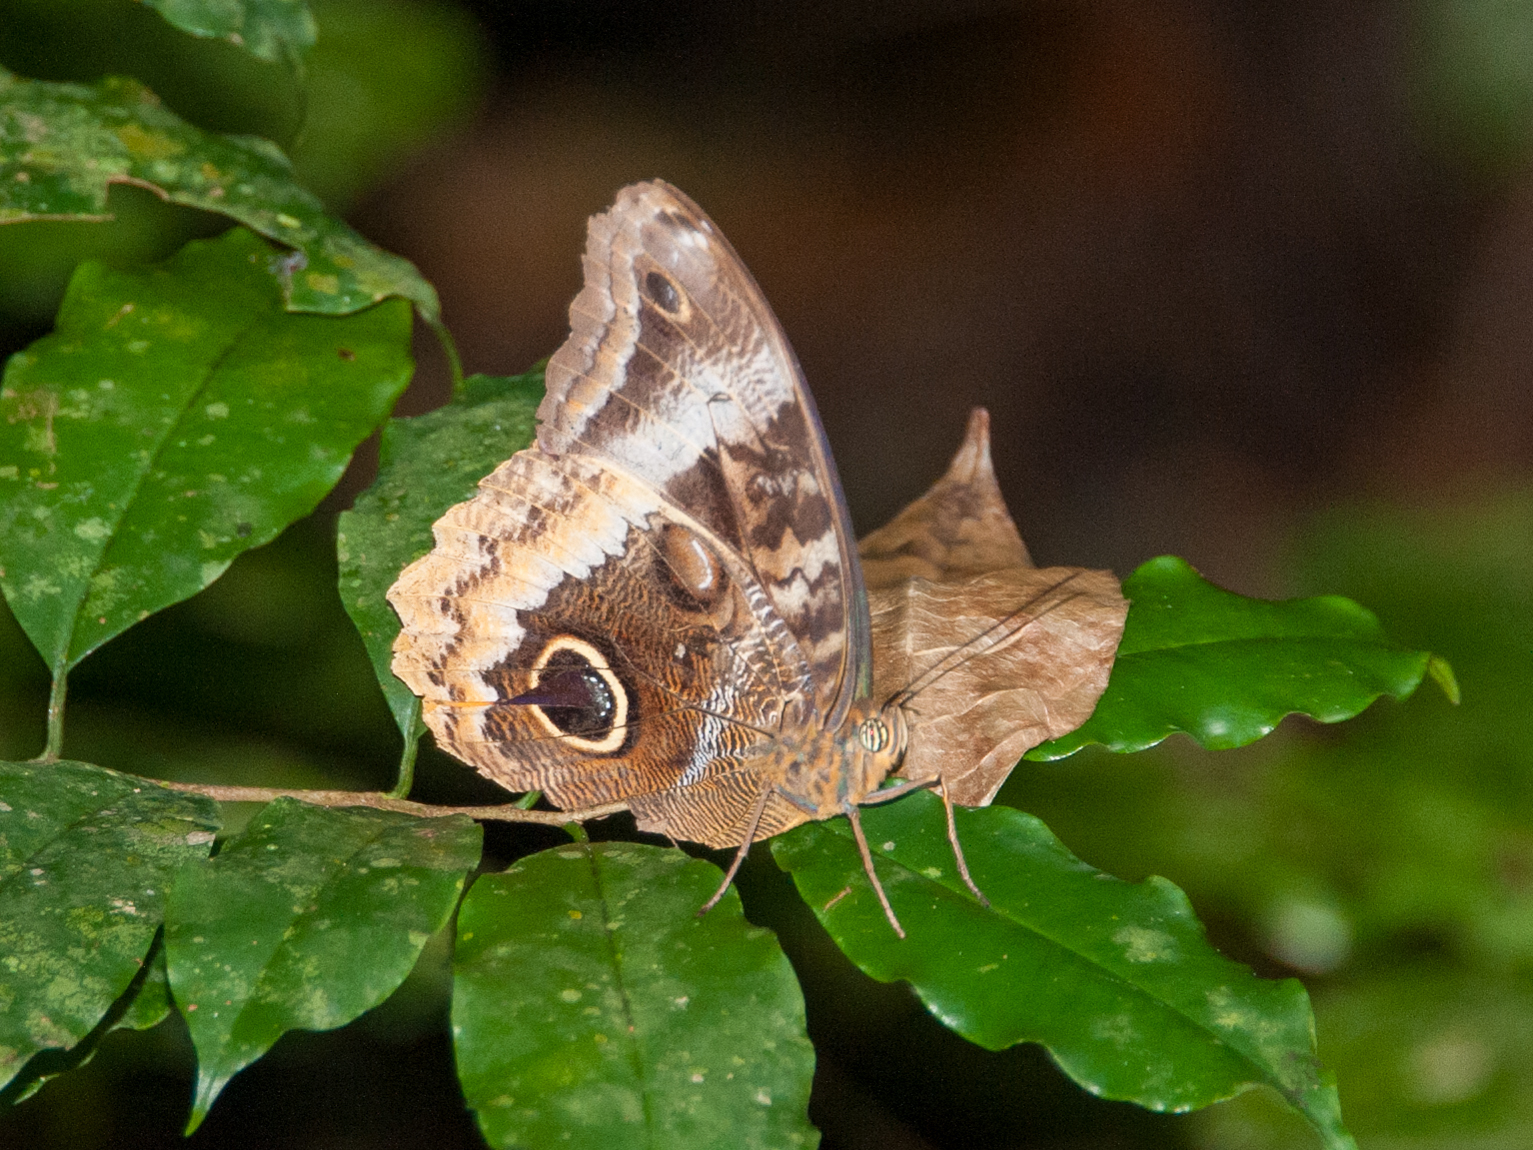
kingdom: Animalia
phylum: Arthropoda
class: Insecta
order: Lepidoptera
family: Nymphalidae
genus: Caligo
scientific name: Caligo uranus
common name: Gold-edged owl-butterfly
